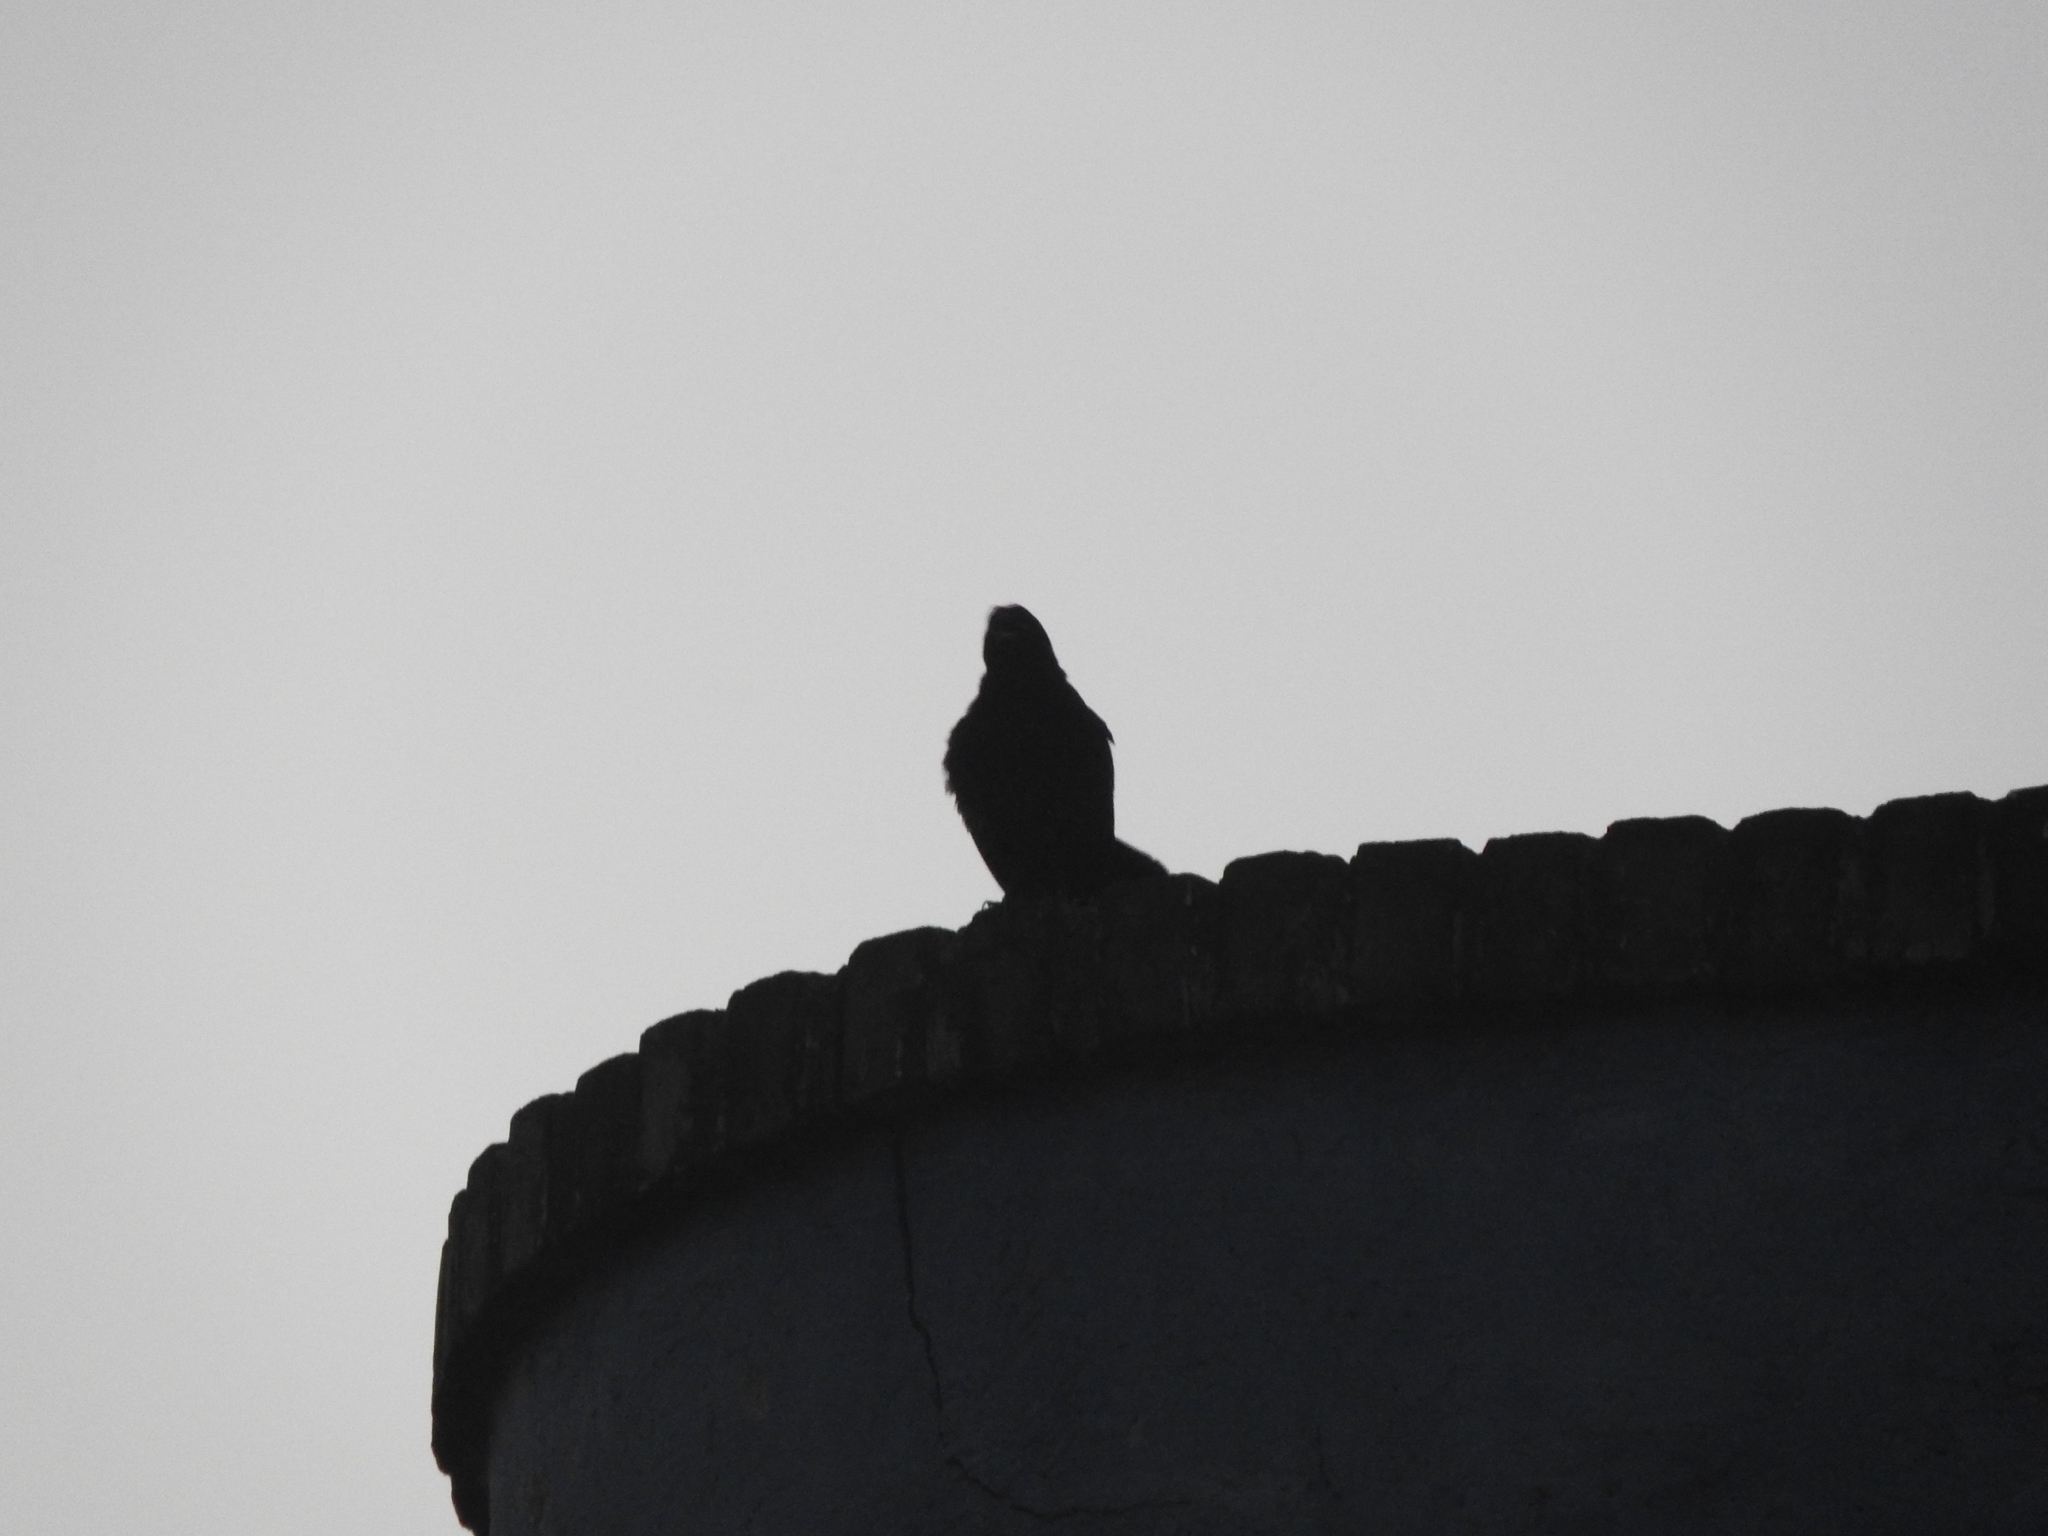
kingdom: Animalia
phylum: Chordata
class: Aves
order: Passeriformes
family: Icteridae
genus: Quiscalus
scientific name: Quiscalus mexicanus
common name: Great-tailed grackle
